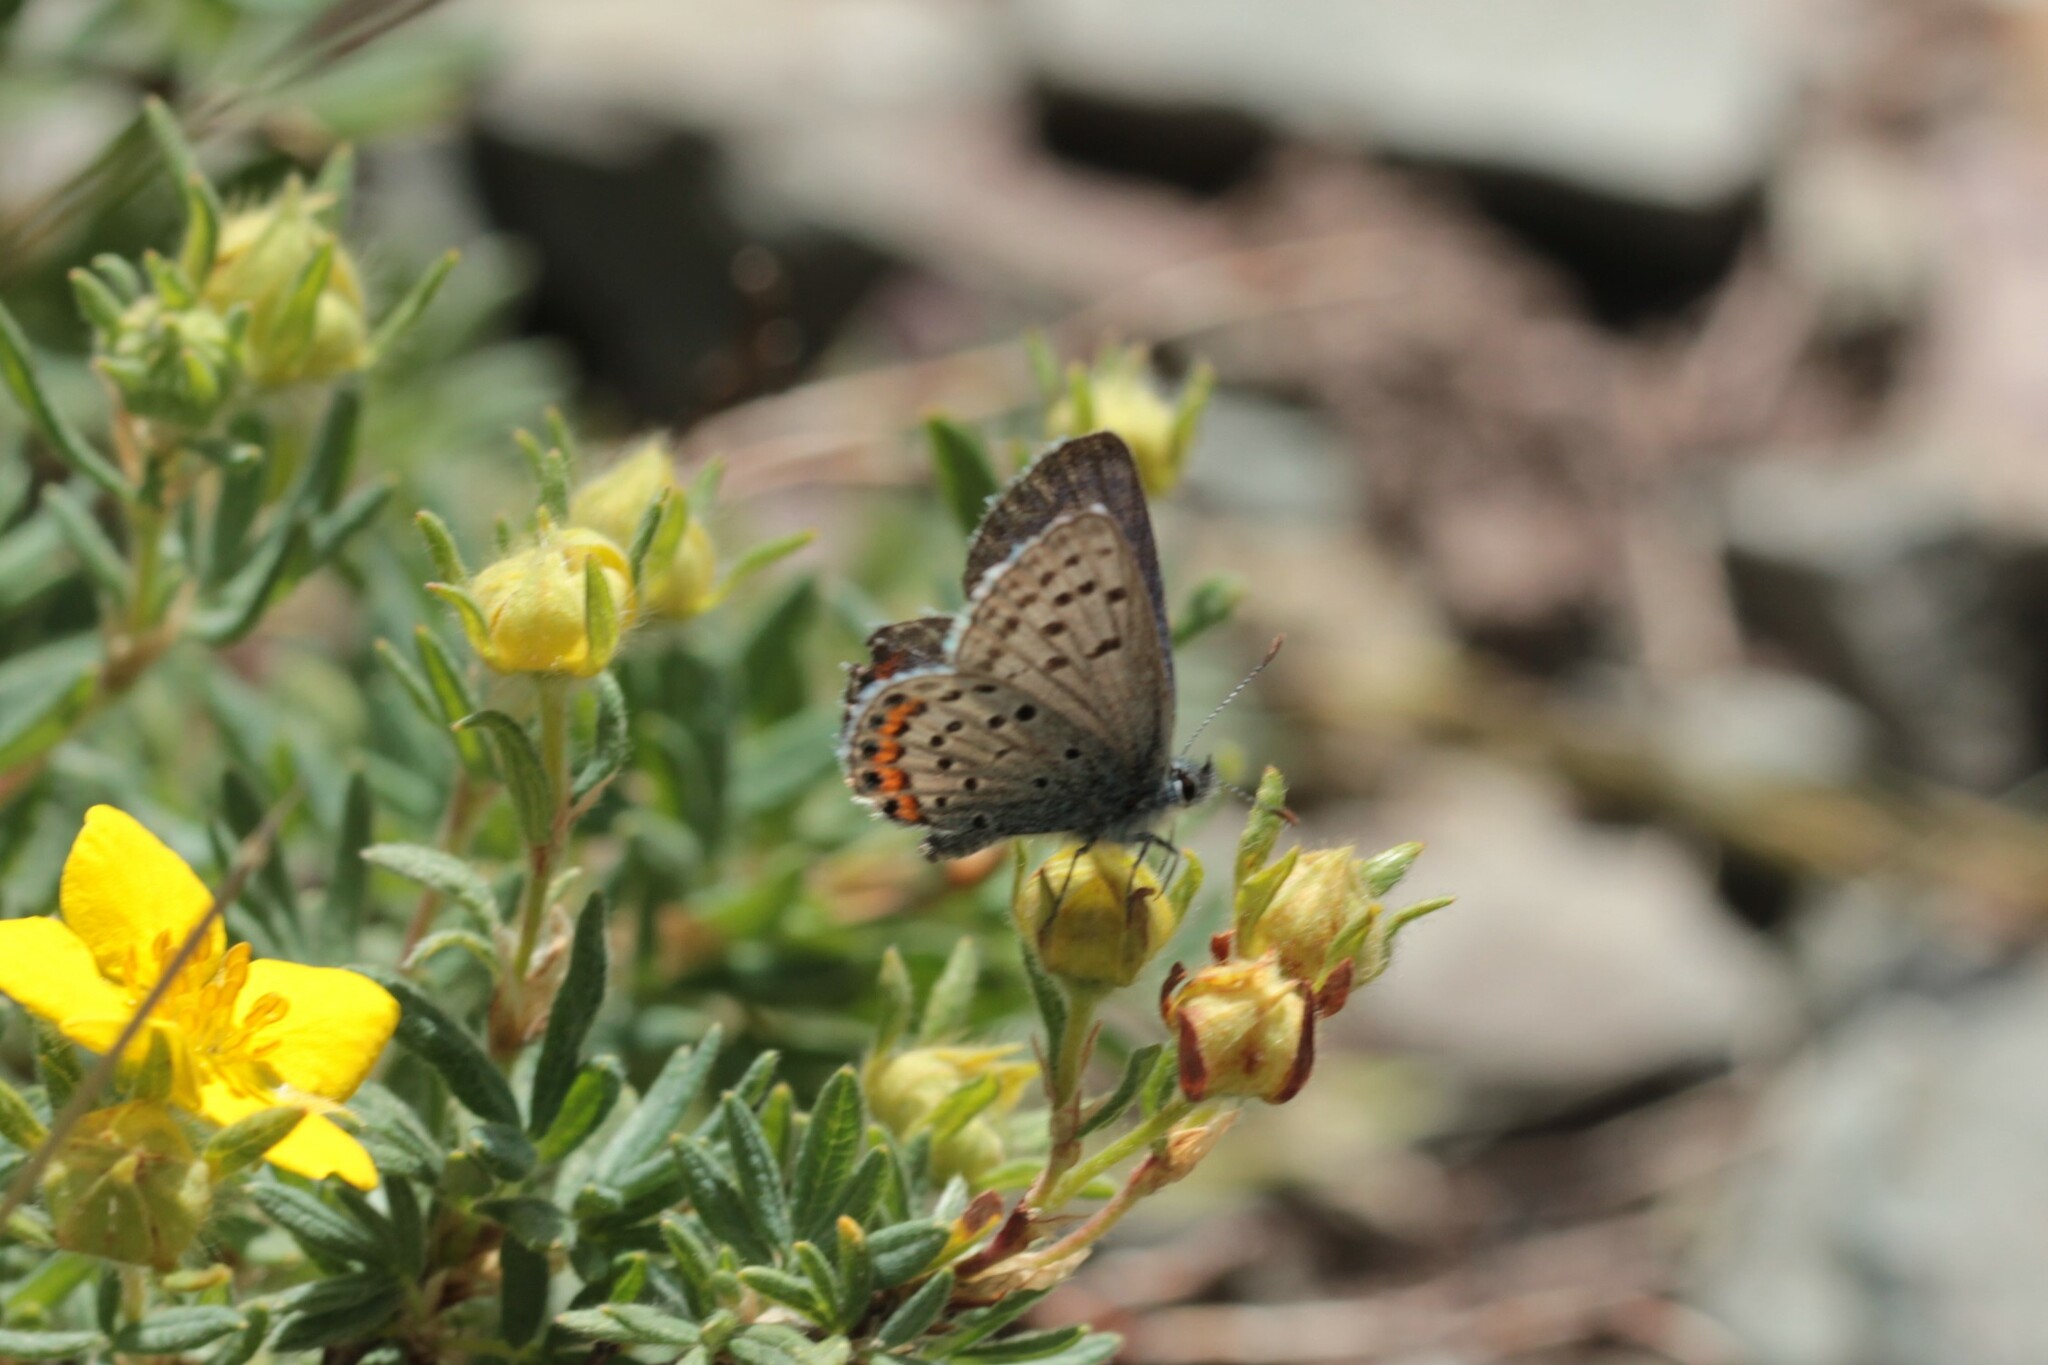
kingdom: Animalia
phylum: Arthropoda
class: Insecta
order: Lepidoptera
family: Lycaenidae
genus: Icaricia
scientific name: Icaricia lupini
